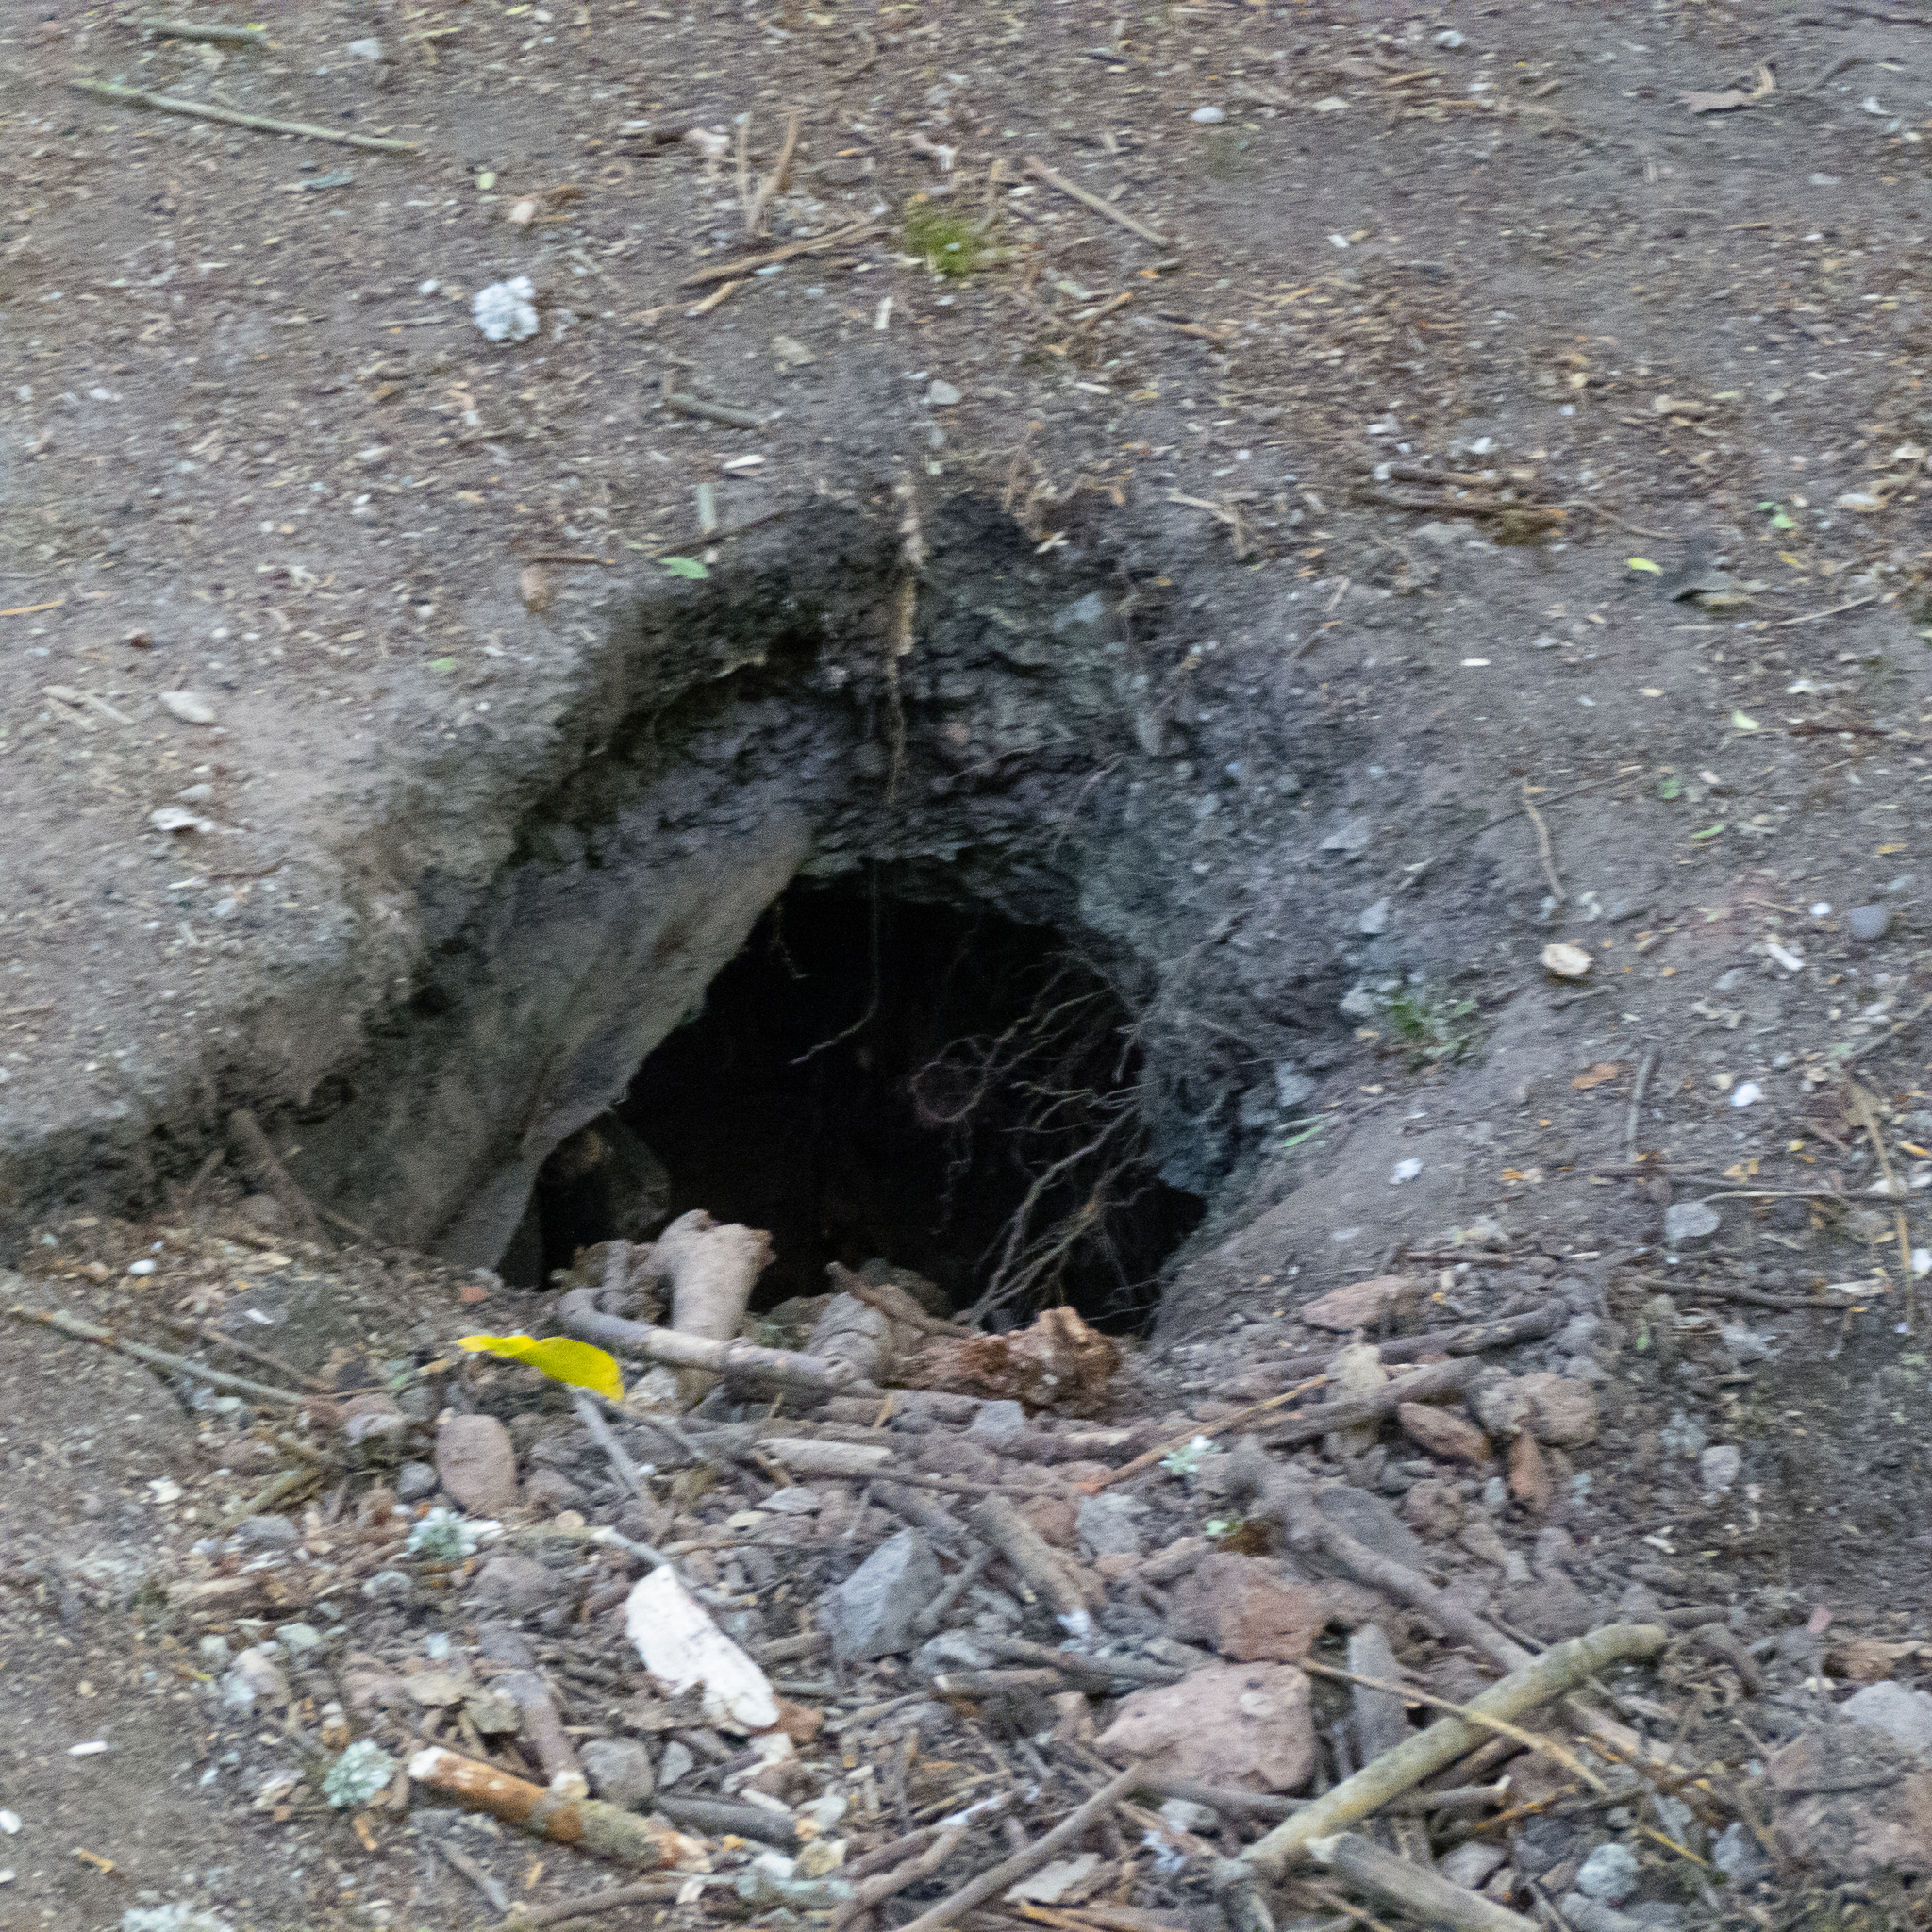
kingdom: Animalia
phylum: Chordata
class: Mammalia
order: Carnivora
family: Mustelidae
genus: Meles
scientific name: Meles meles
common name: Eurasian badger
